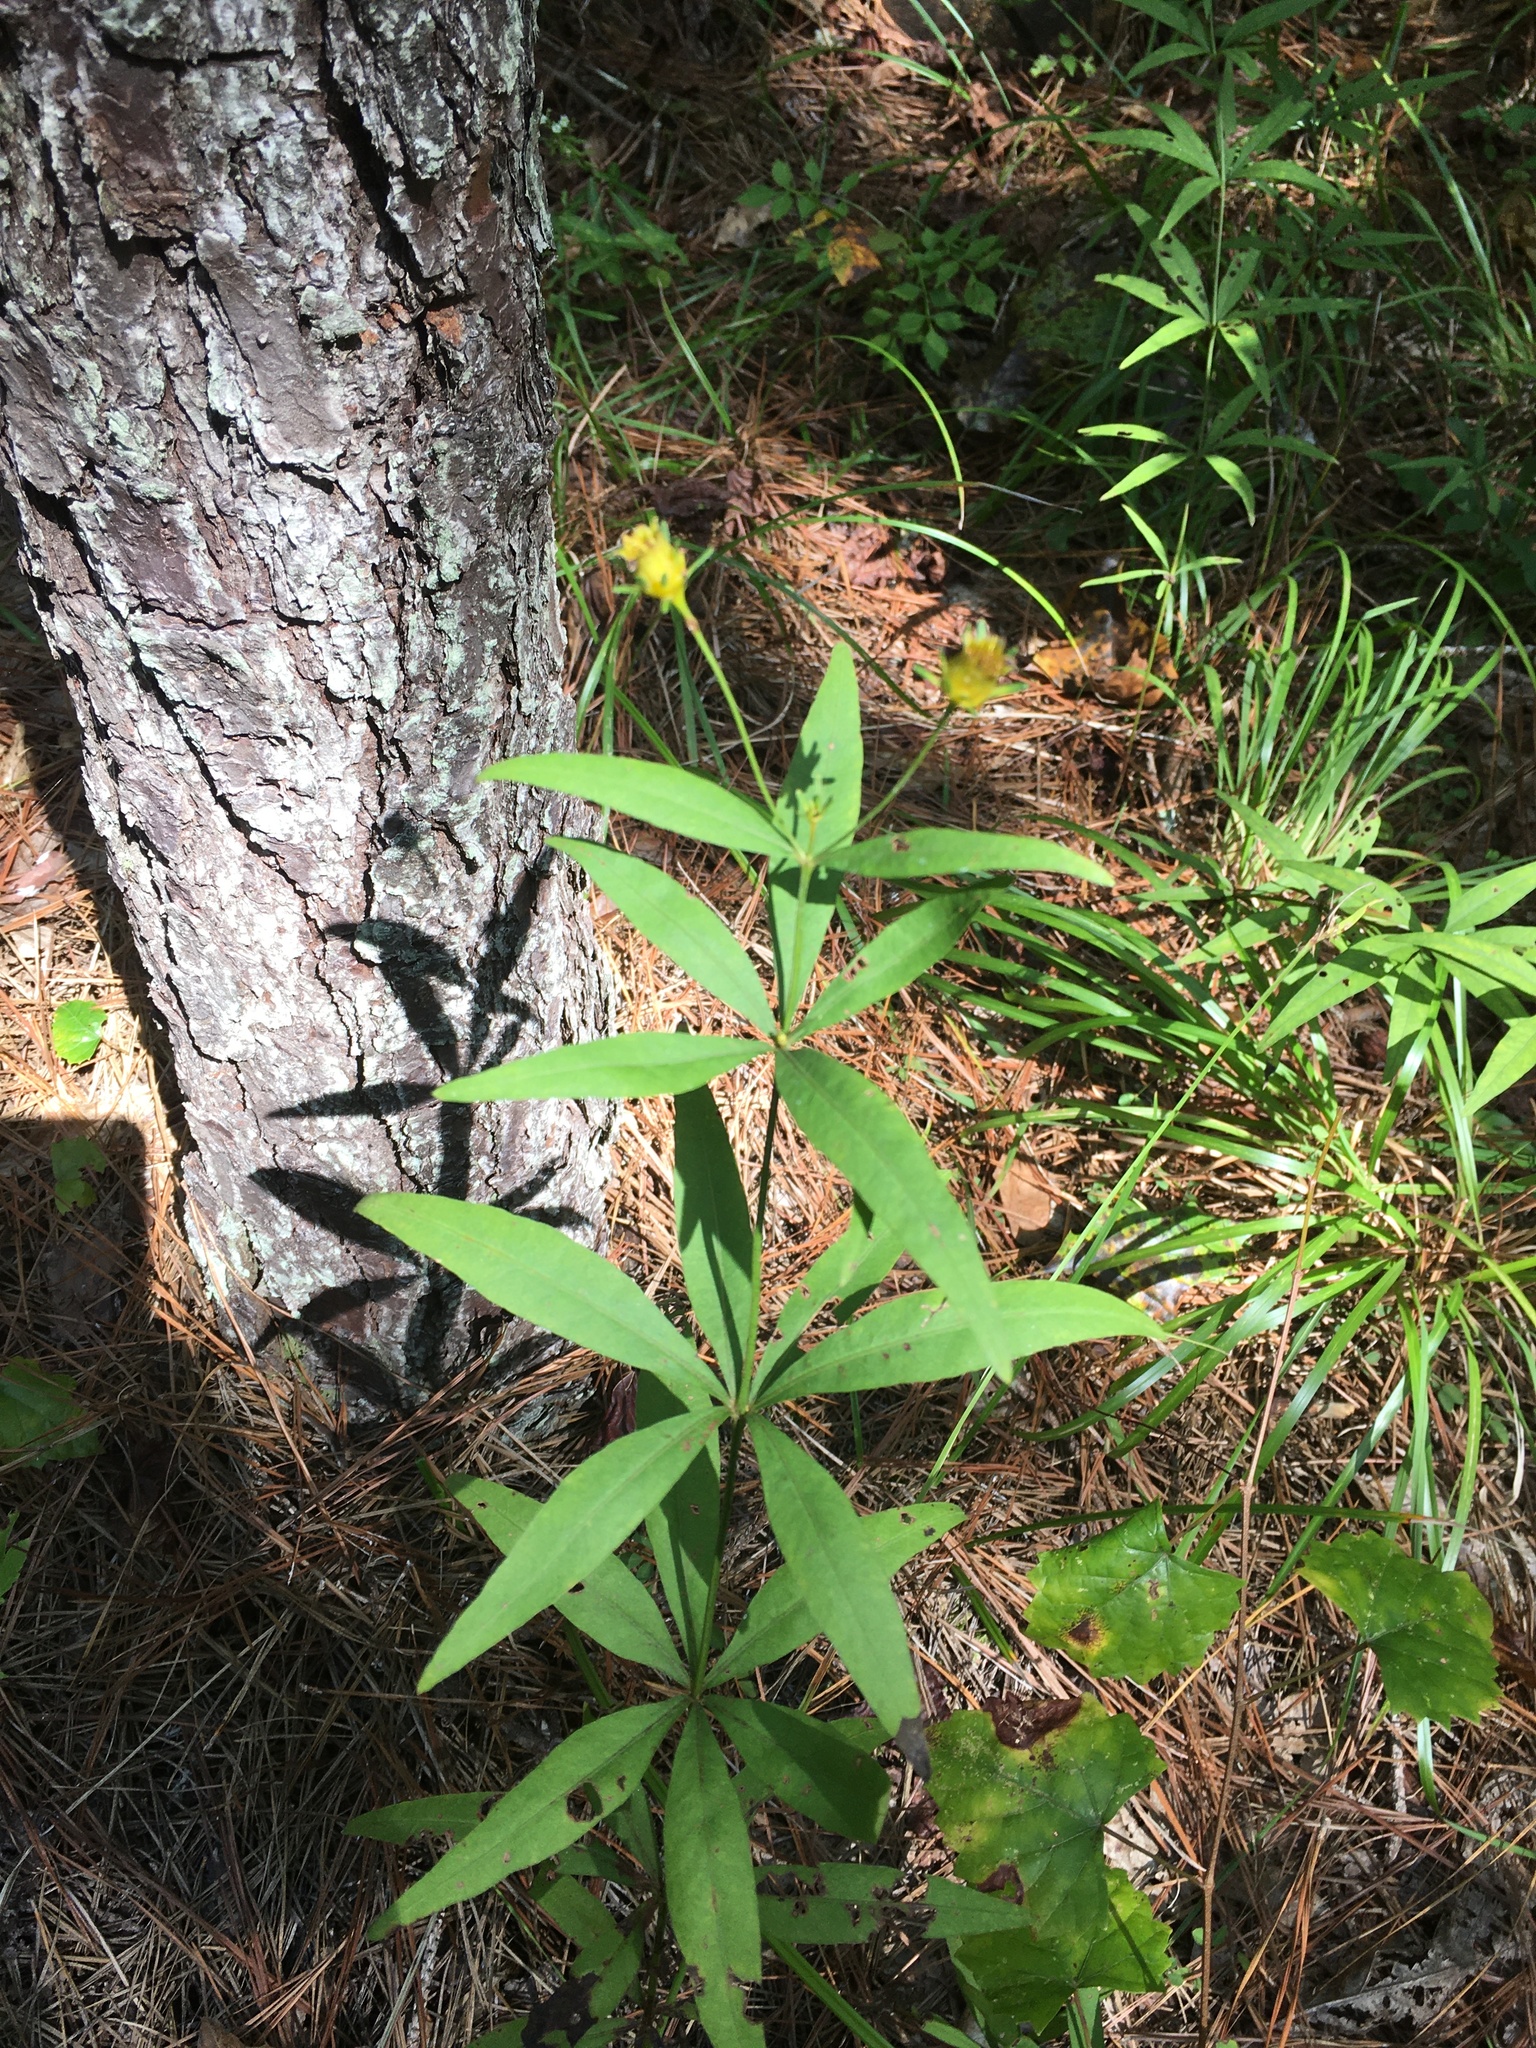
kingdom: Plantae
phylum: Tracheophyta
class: Magnoliopsida
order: Asterales
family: Asteraceae
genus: Coreopsis
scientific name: Coreopsis major
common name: Forest tickseed
